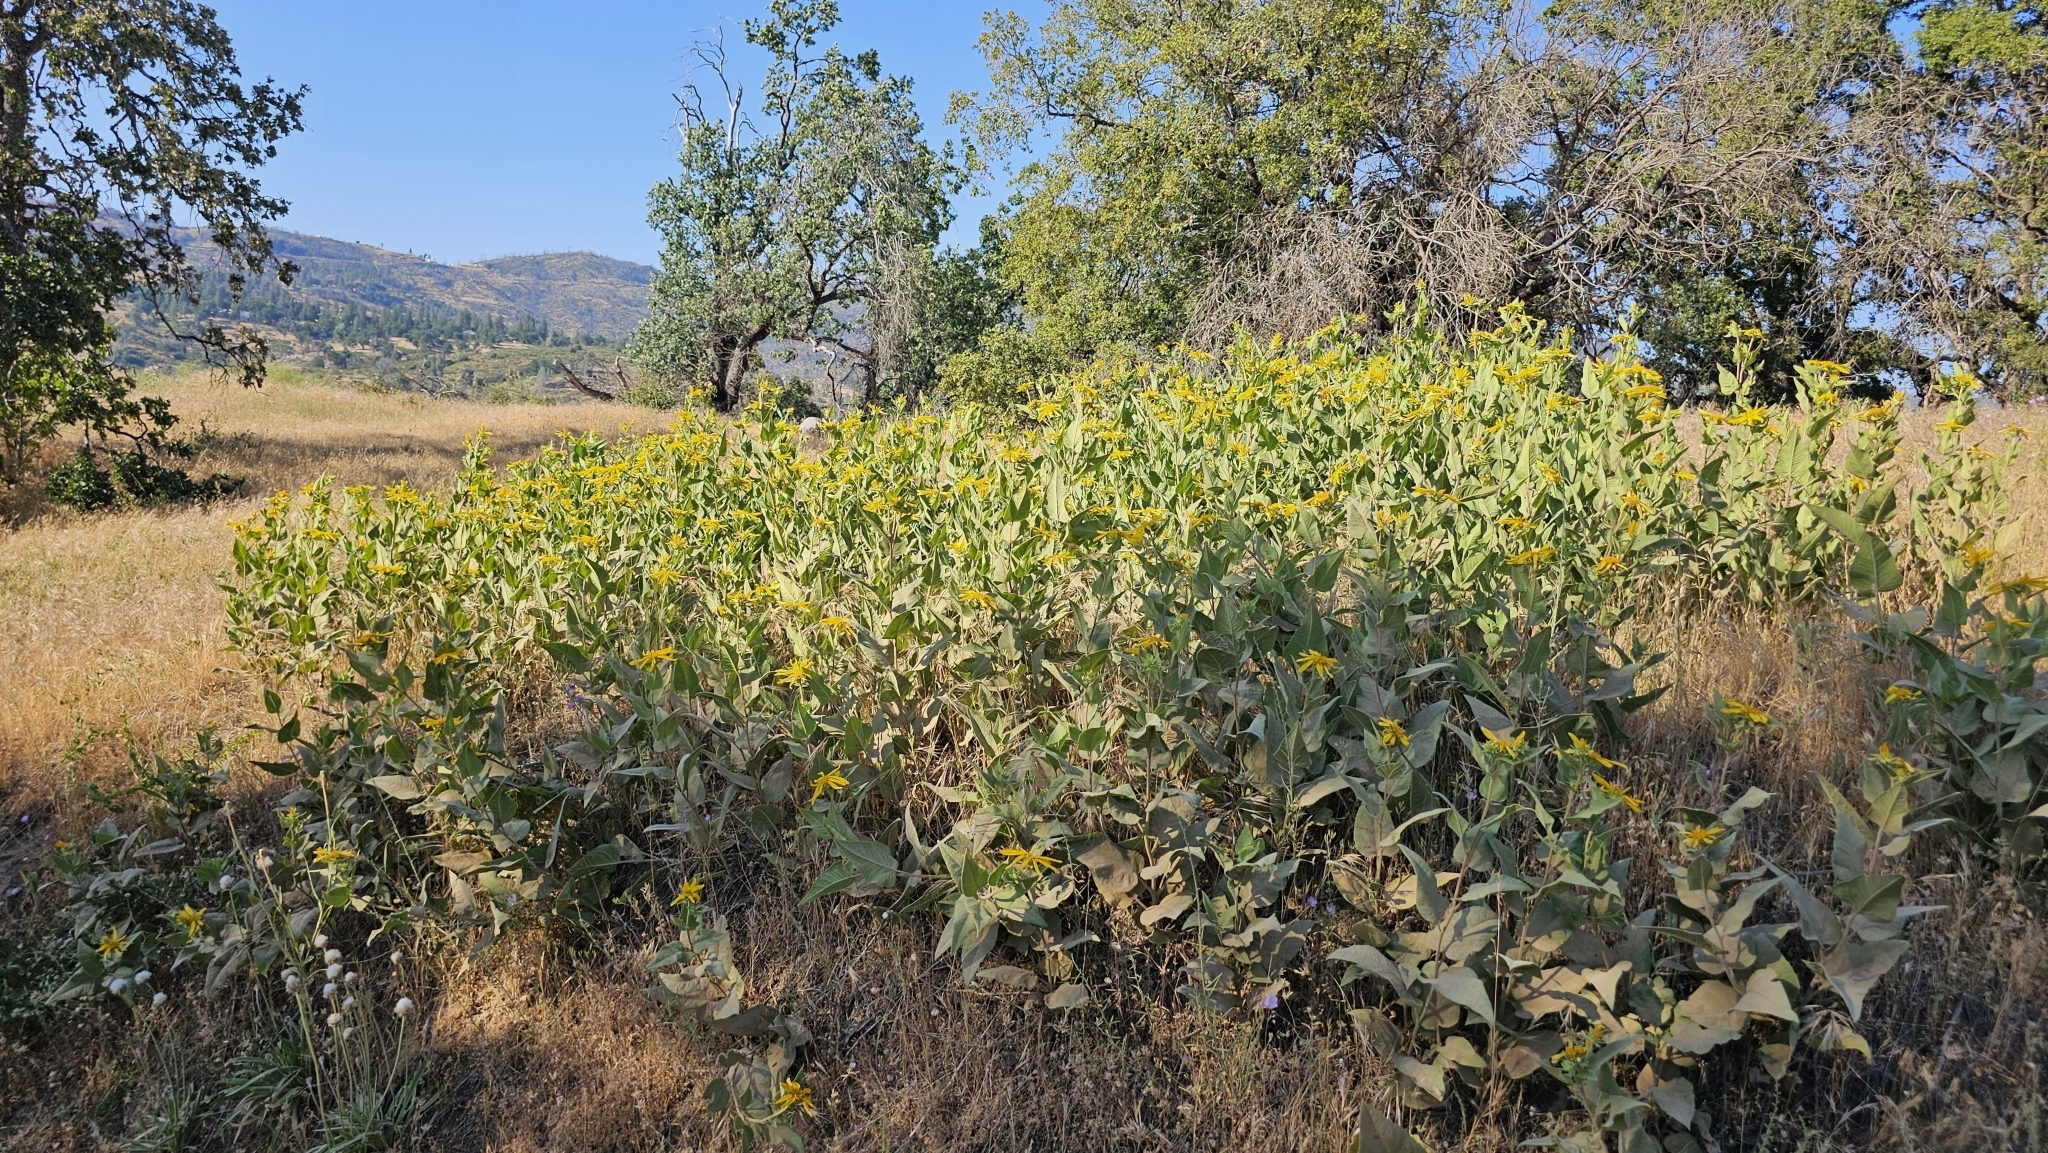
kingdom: Plantae
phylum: Tracheophyta
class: Magnoliopsida
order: Asterales
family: Asteraceae
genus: Agnorhiza
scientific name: Agnorhiza elata
